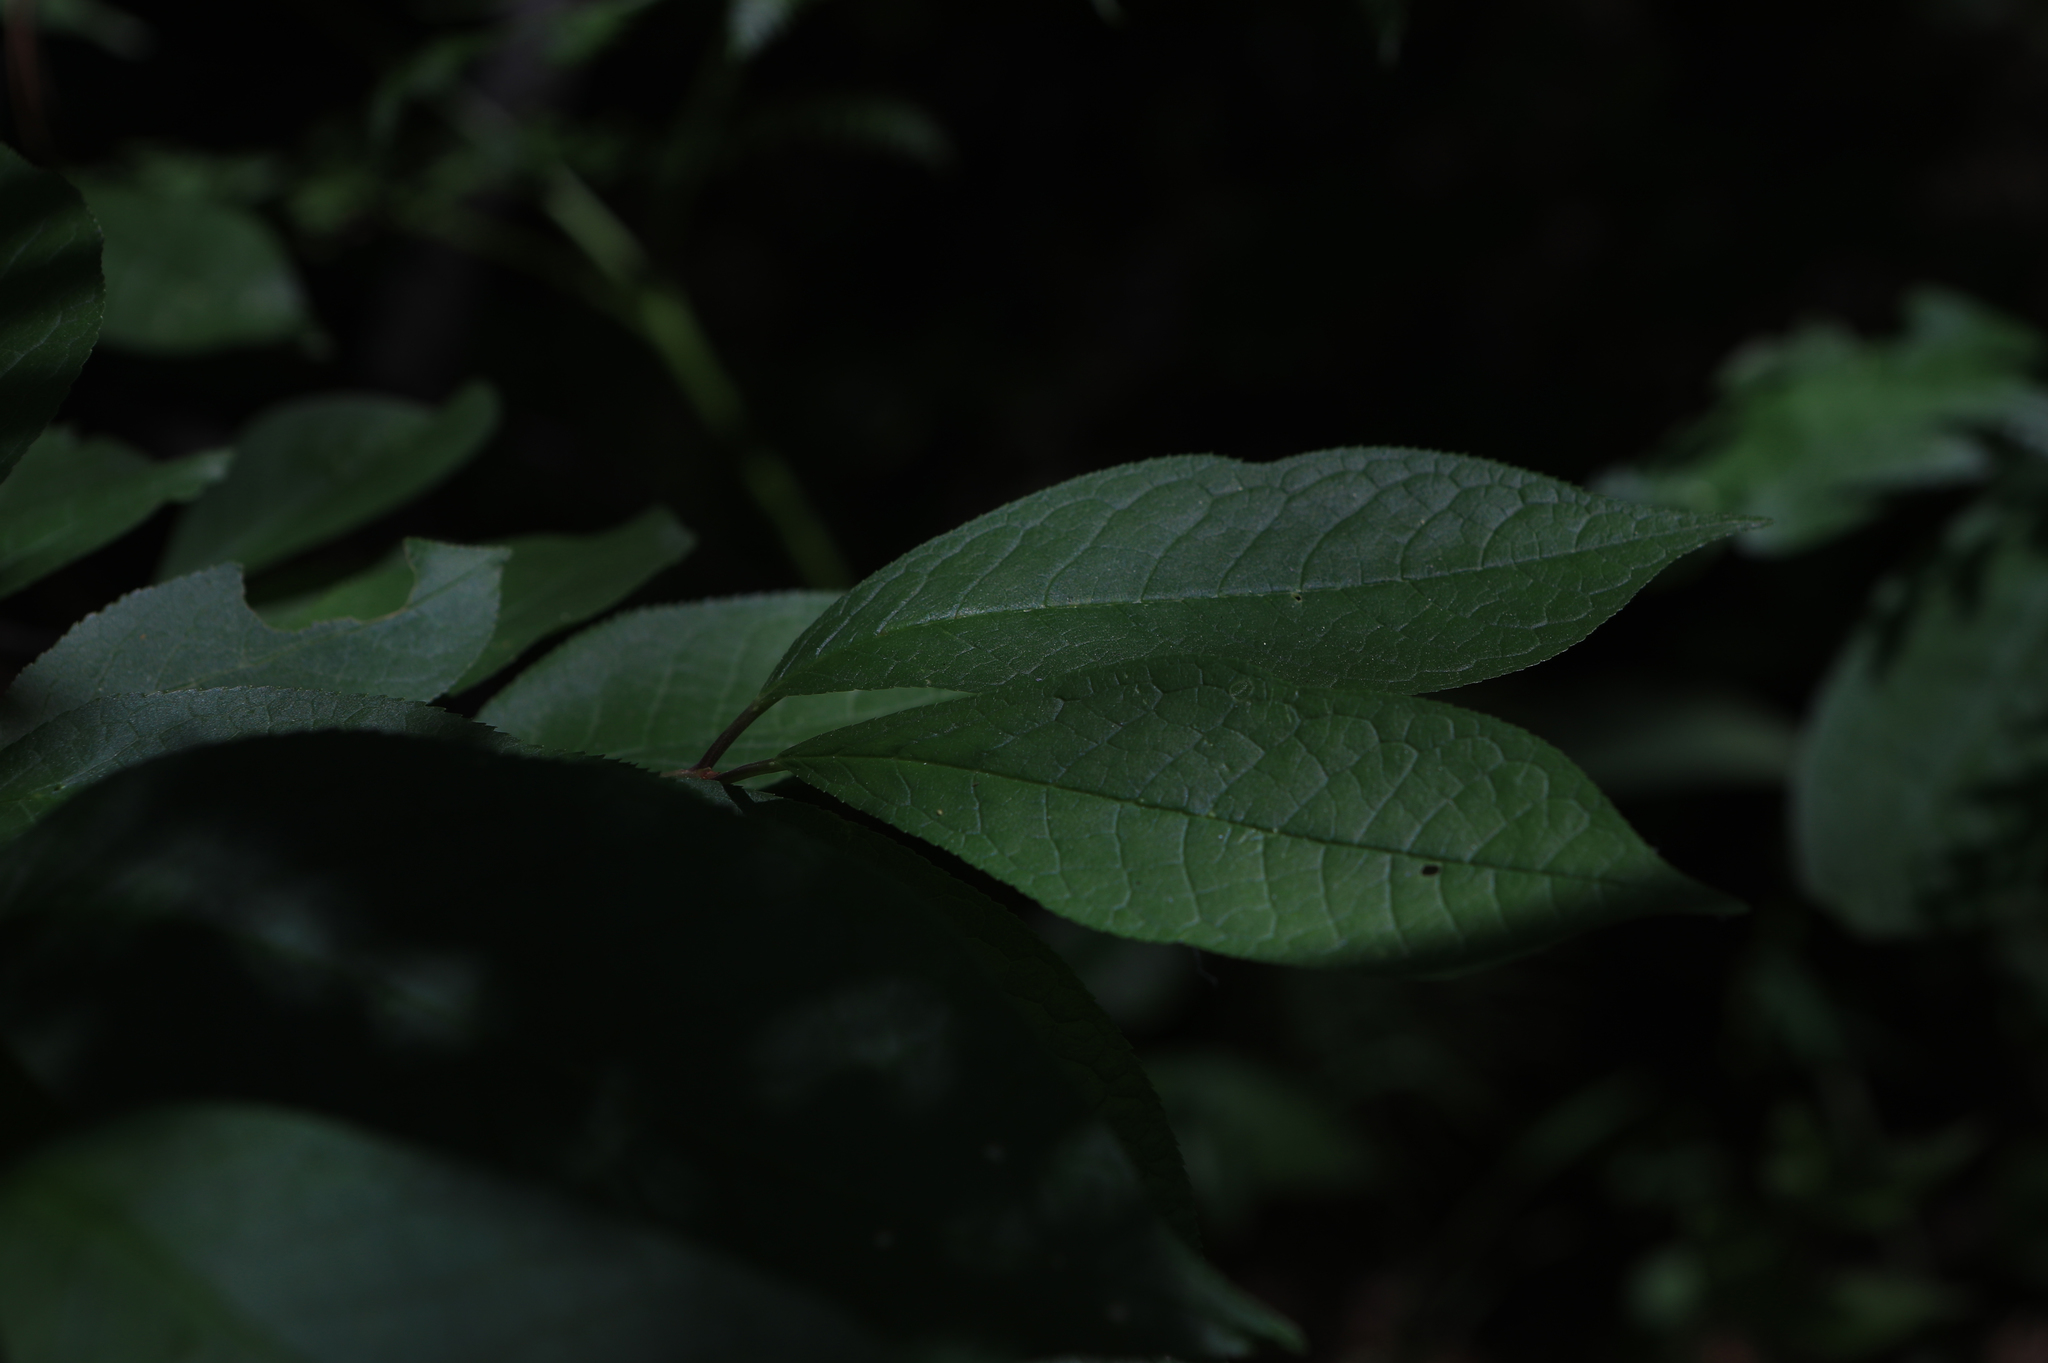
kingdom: Plantae
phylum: Tracheophyta
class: Magnoliopsida
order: Rosales
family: Rosaceae
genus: Prunus
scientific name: Prunus padus
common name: Bird cherry
